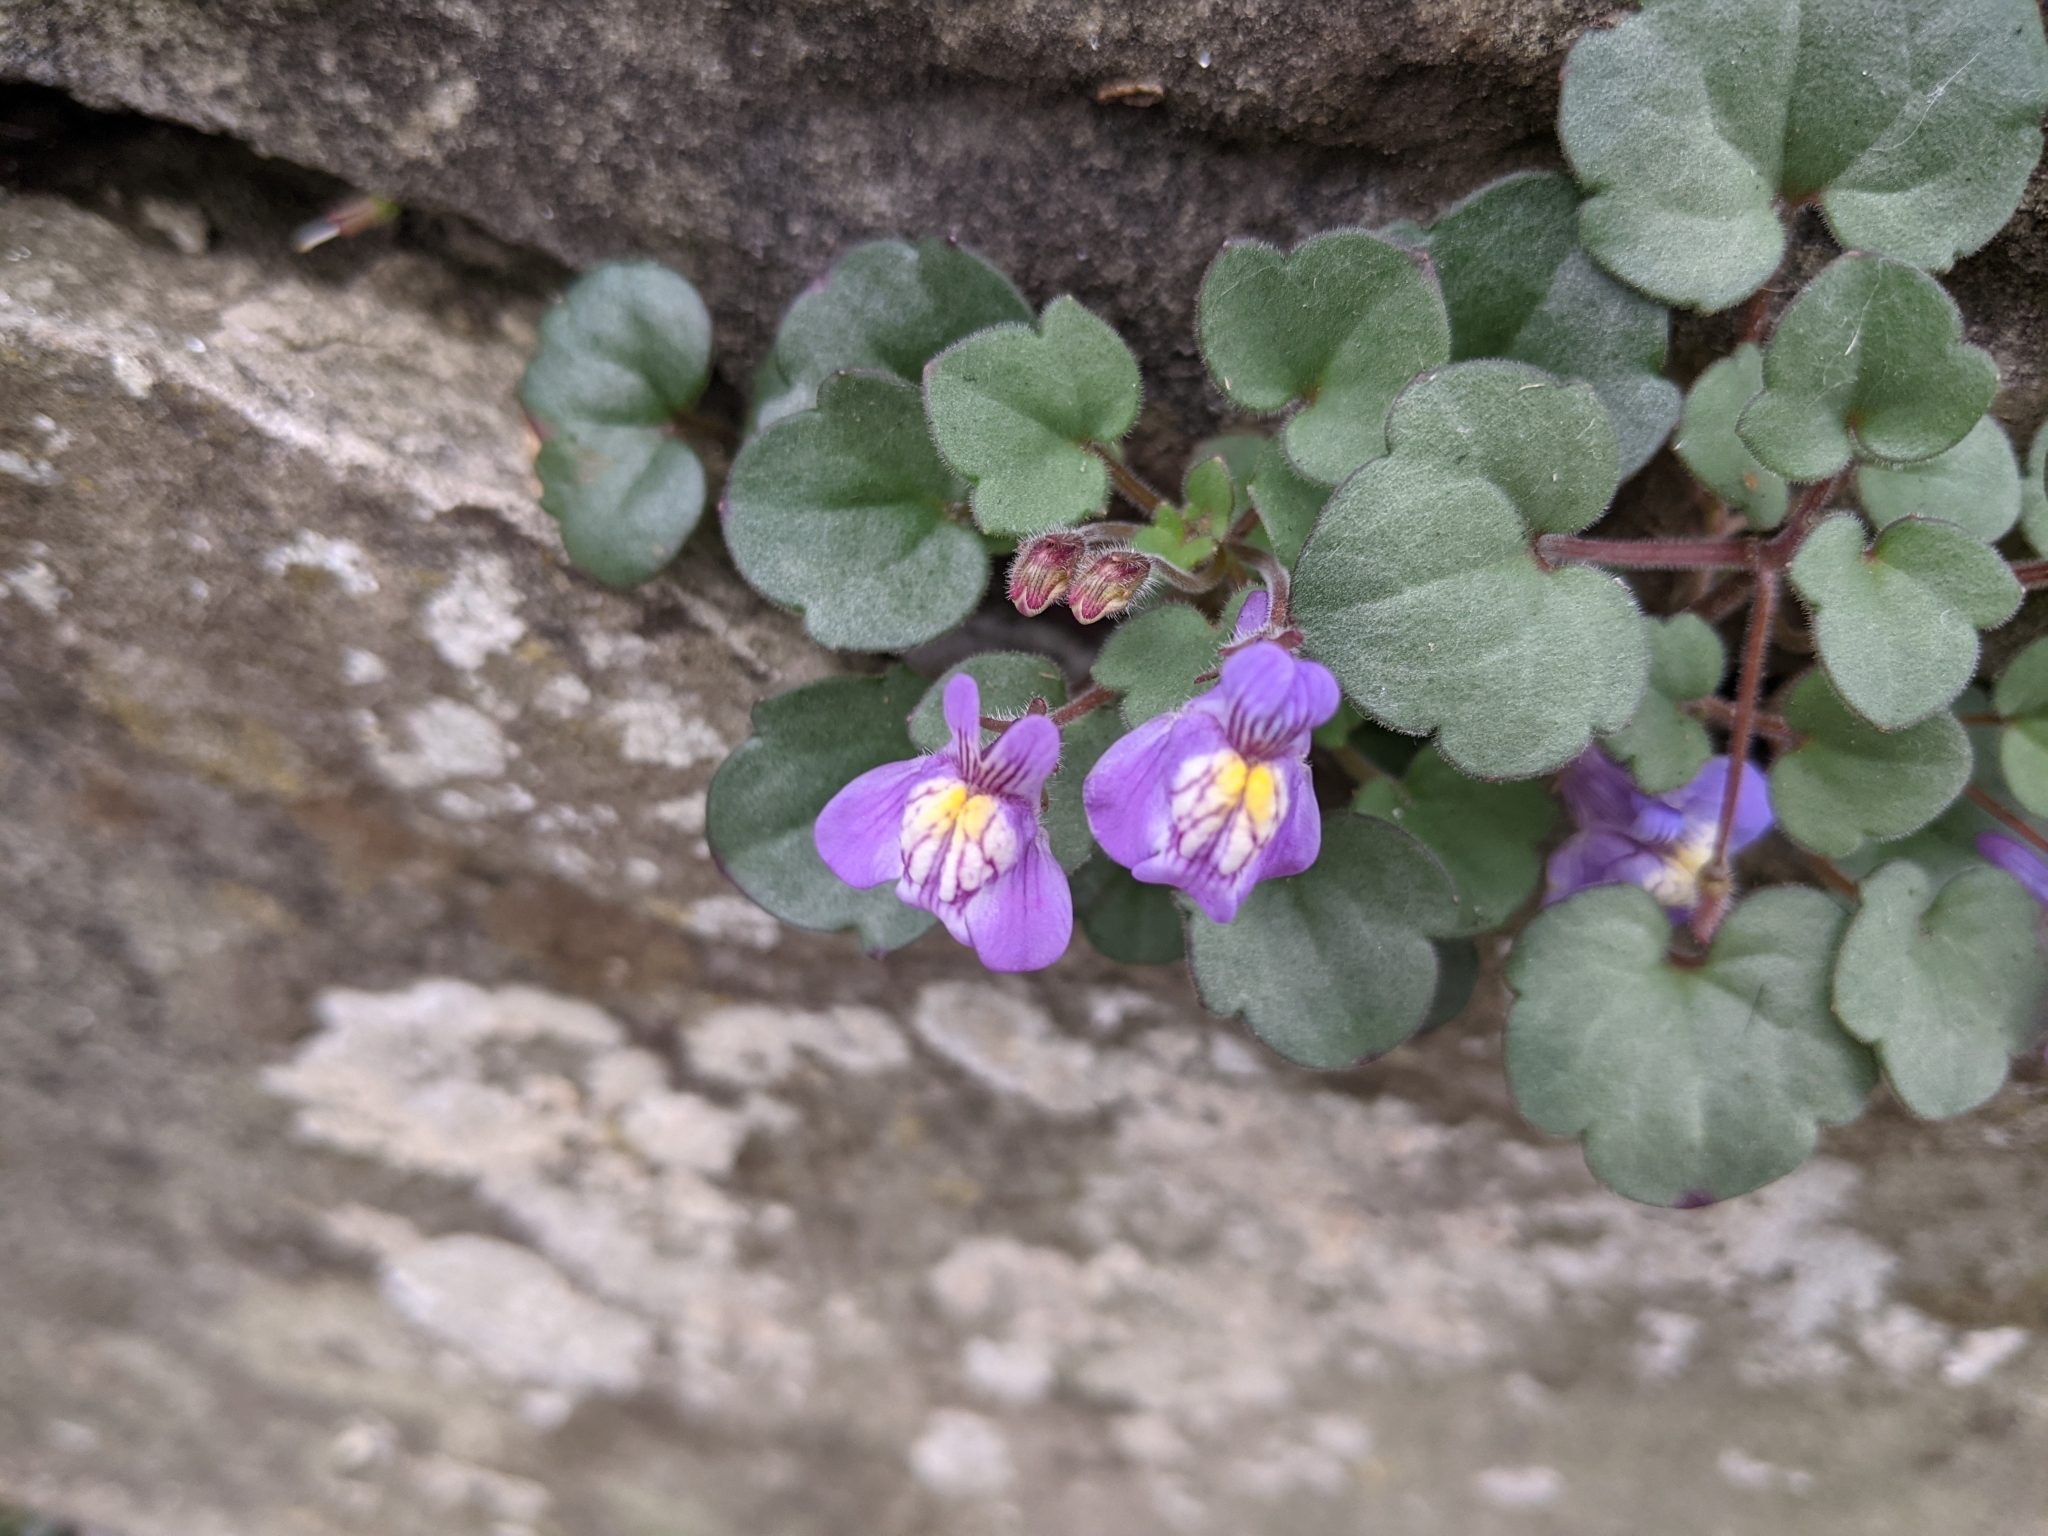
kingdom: Plantae
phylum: Tracheophyta
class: Magnoliopsida
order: Lamiales
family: Plantaginaceae
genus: Cymbalaria
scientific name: Cymbalaria muralis
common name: Ivy-leaved toadflax
